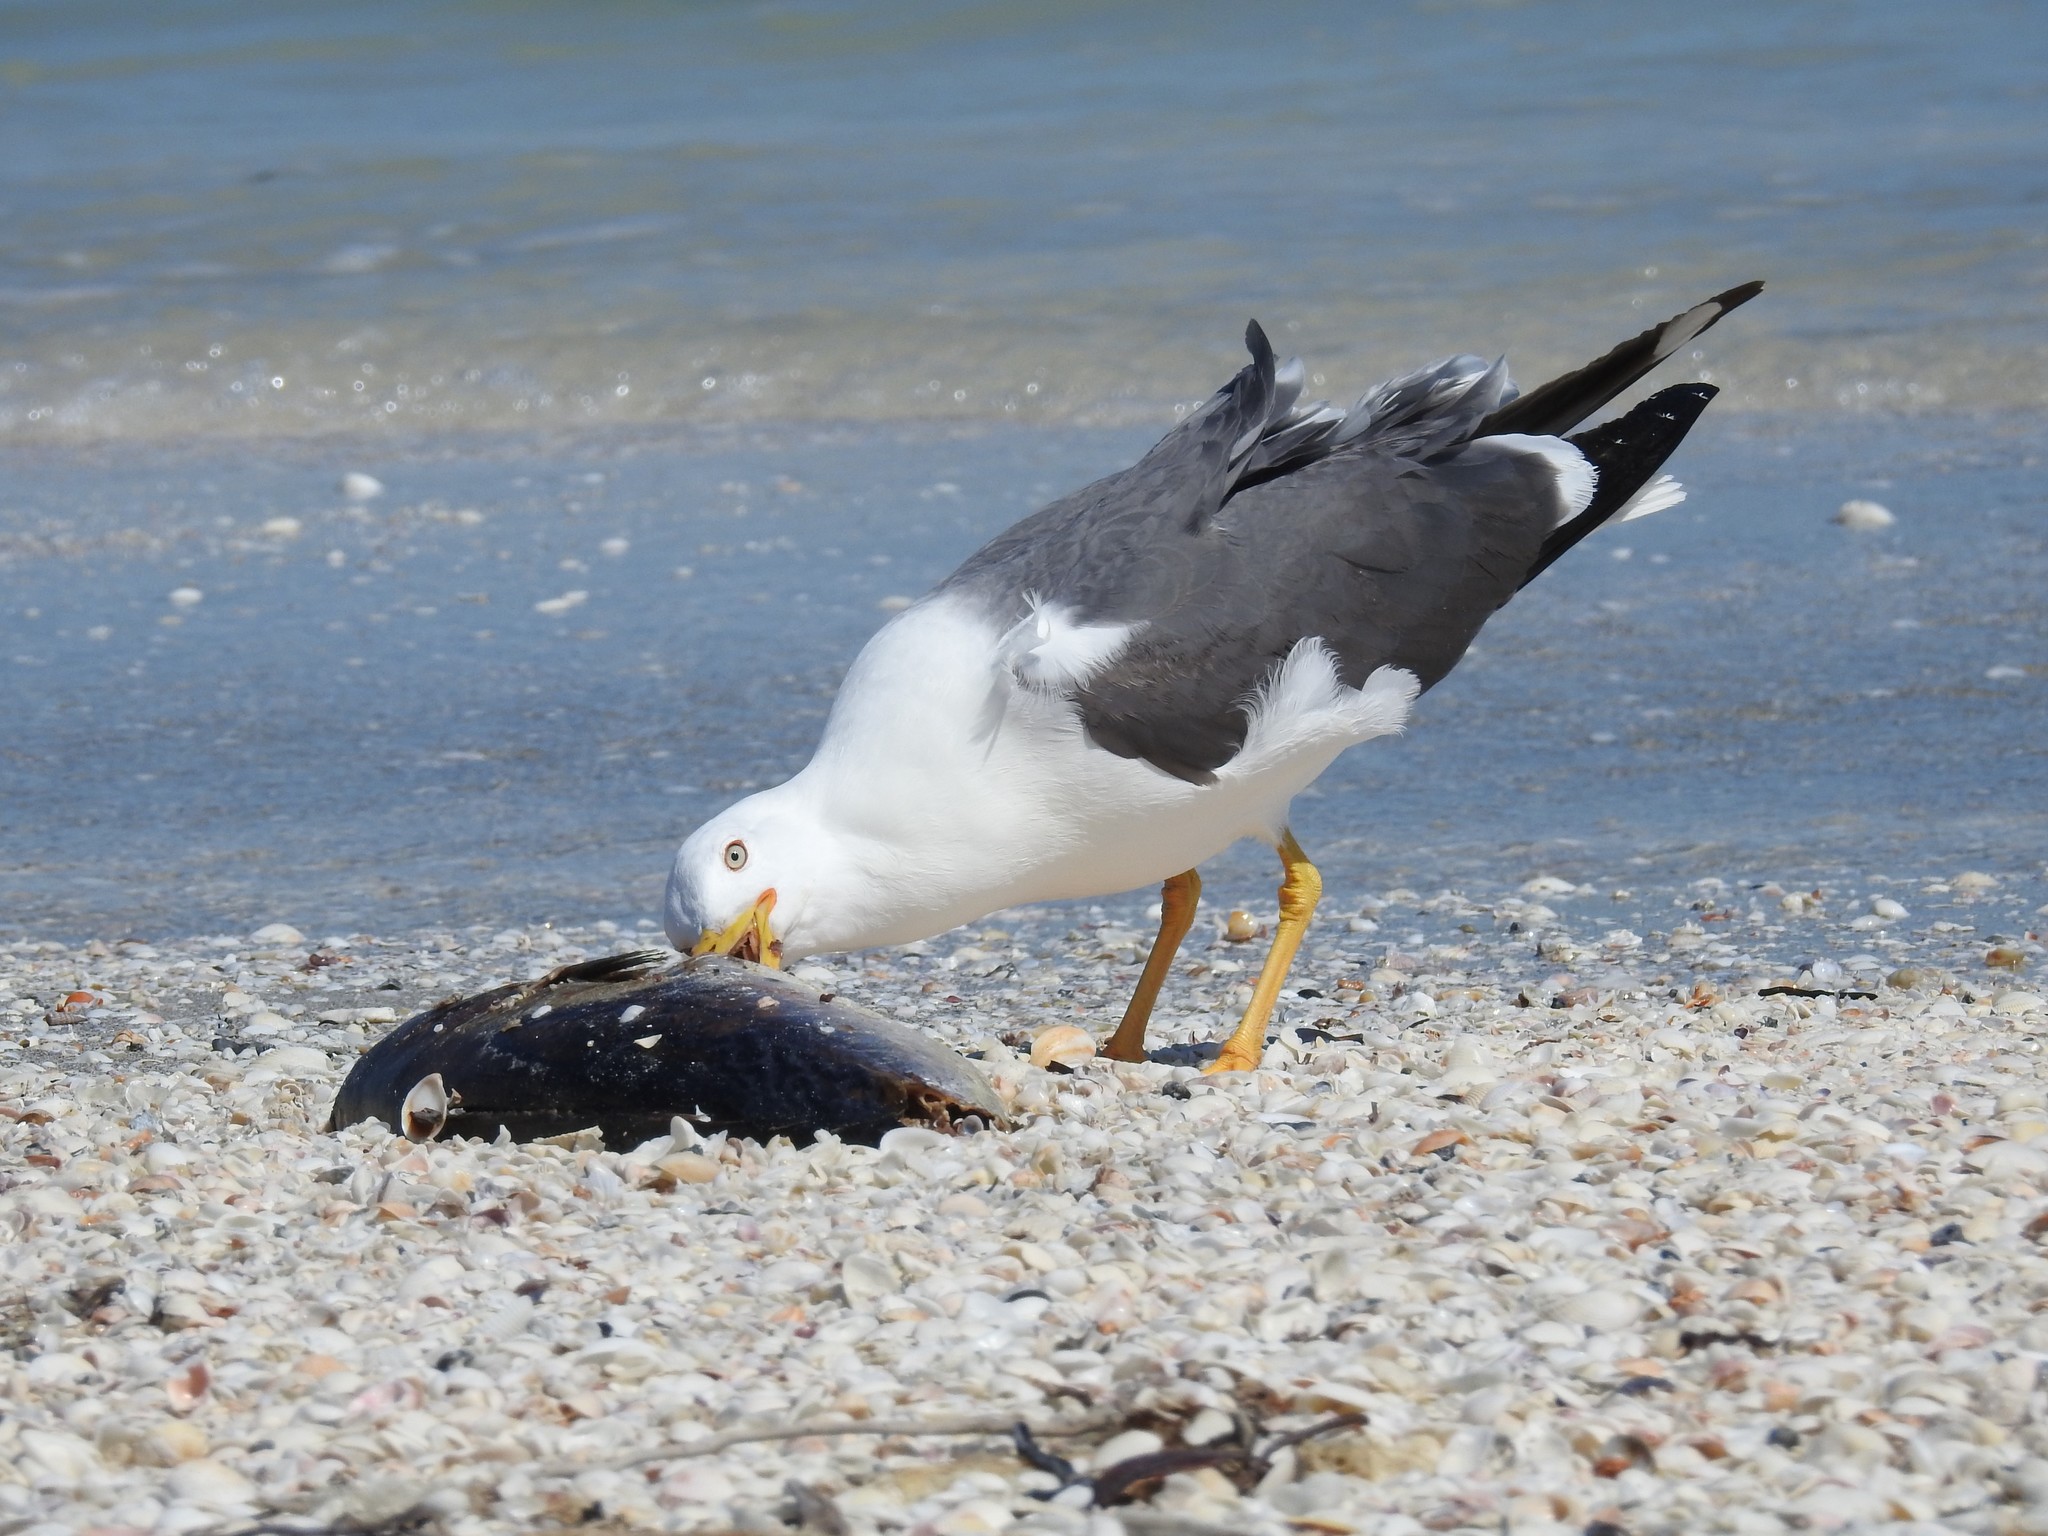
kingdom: Animalia
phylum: Chordata
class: Aves
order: Charadriiformes
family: Laridae
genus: Larus
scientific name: Larus fuscus
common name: Lesser black-backed gull
